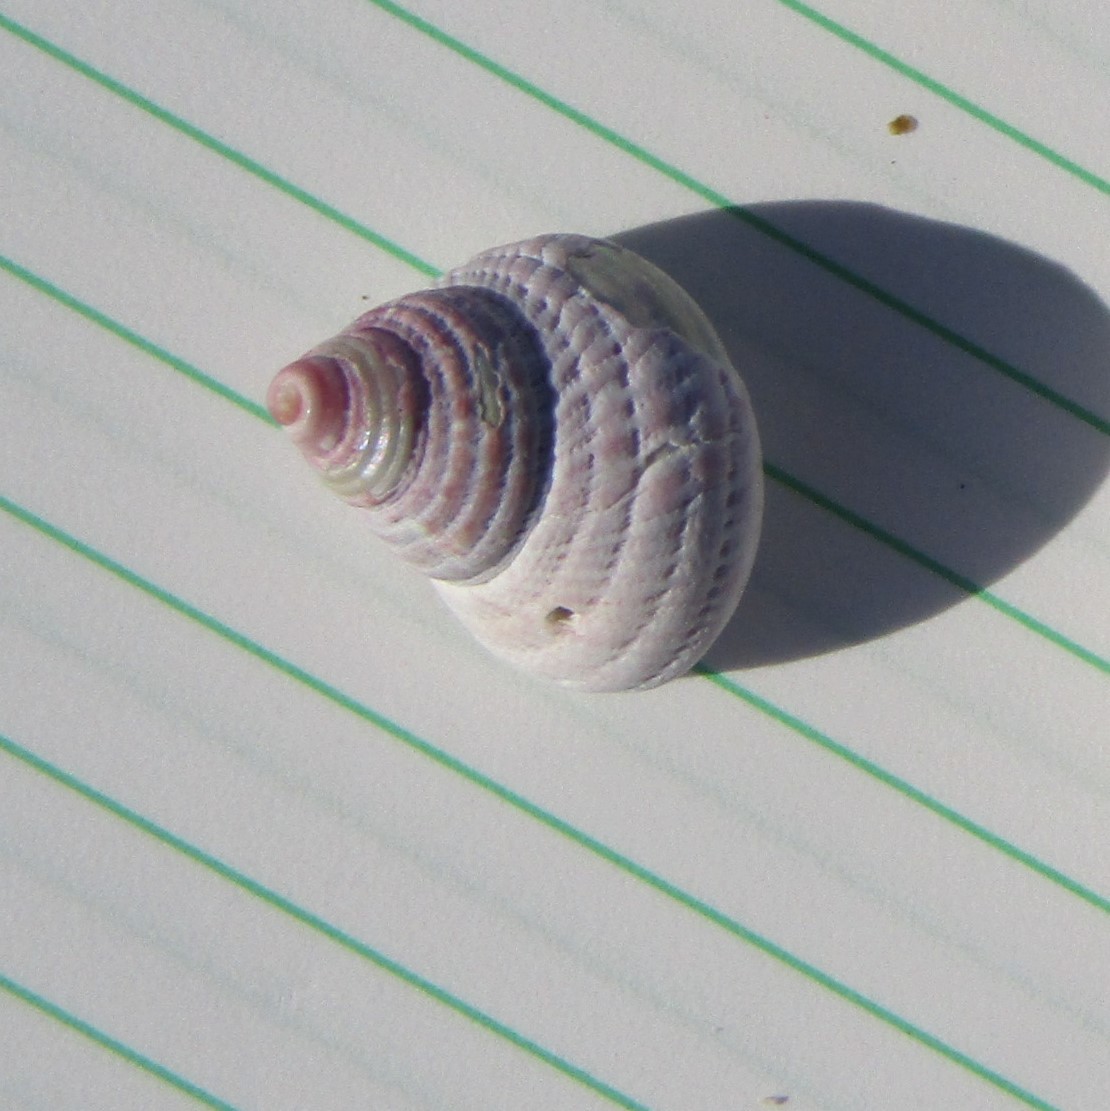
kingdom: Animalia
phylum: Mollusca
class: Gastropoda
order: Trochida
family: Trochidae
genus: Micrelenchus
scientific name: Micrelenchus purpureus
